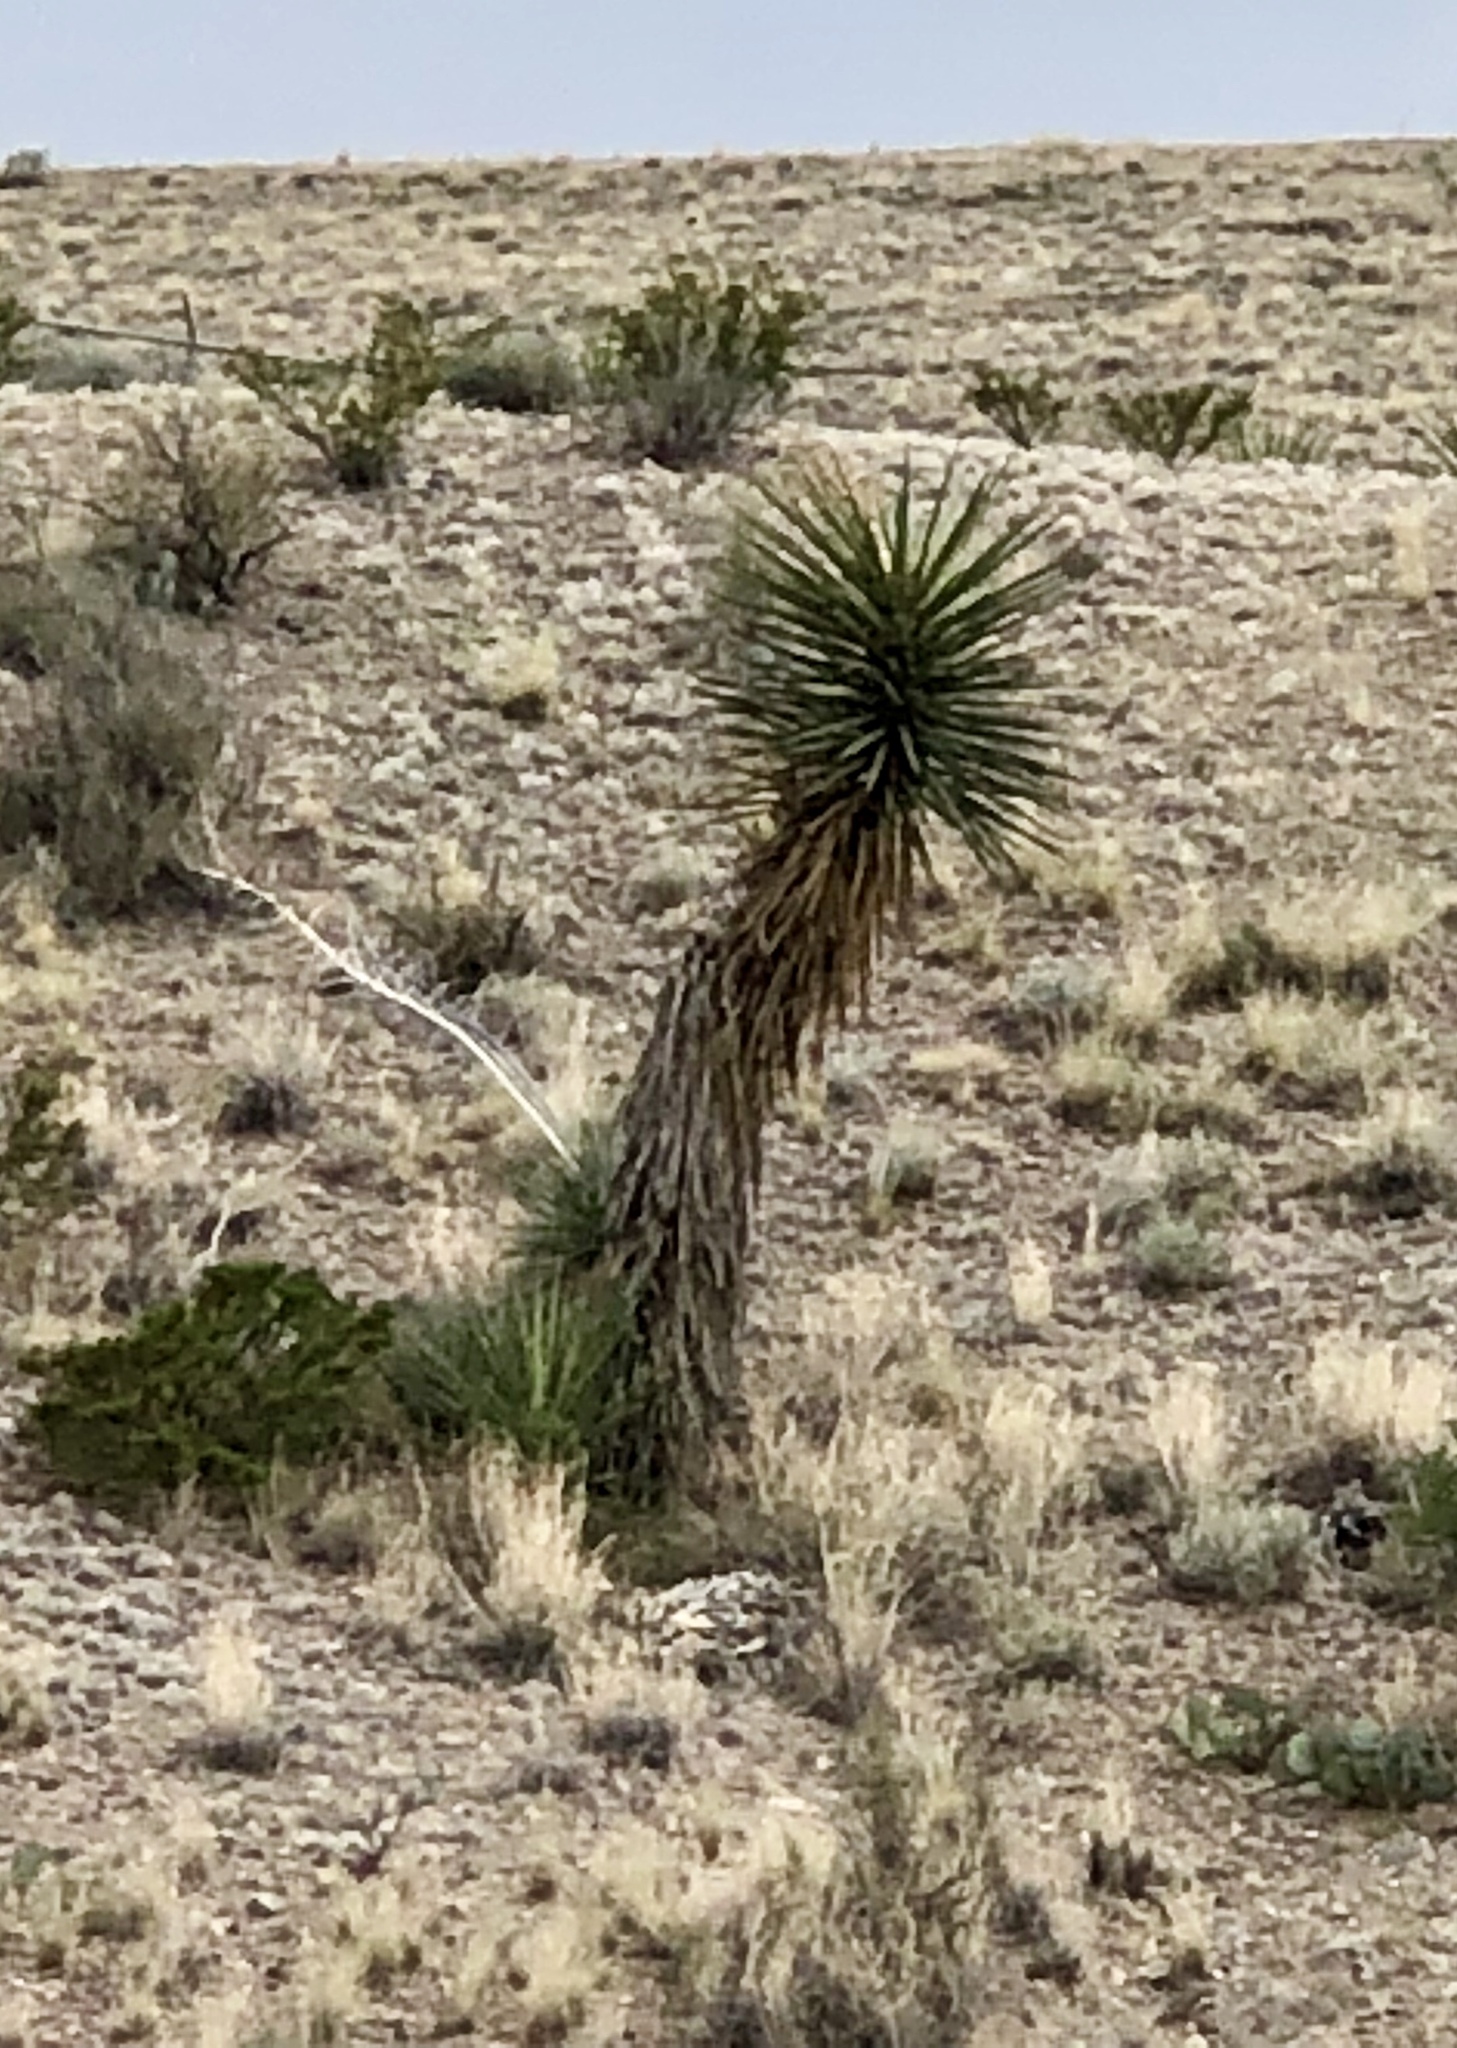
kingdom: Plantae
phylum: Tracheophyta
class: Liliopsida
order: Asparagales
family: Asparagaceae
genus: Yucca
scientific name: Yucca elata
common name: Palmella
